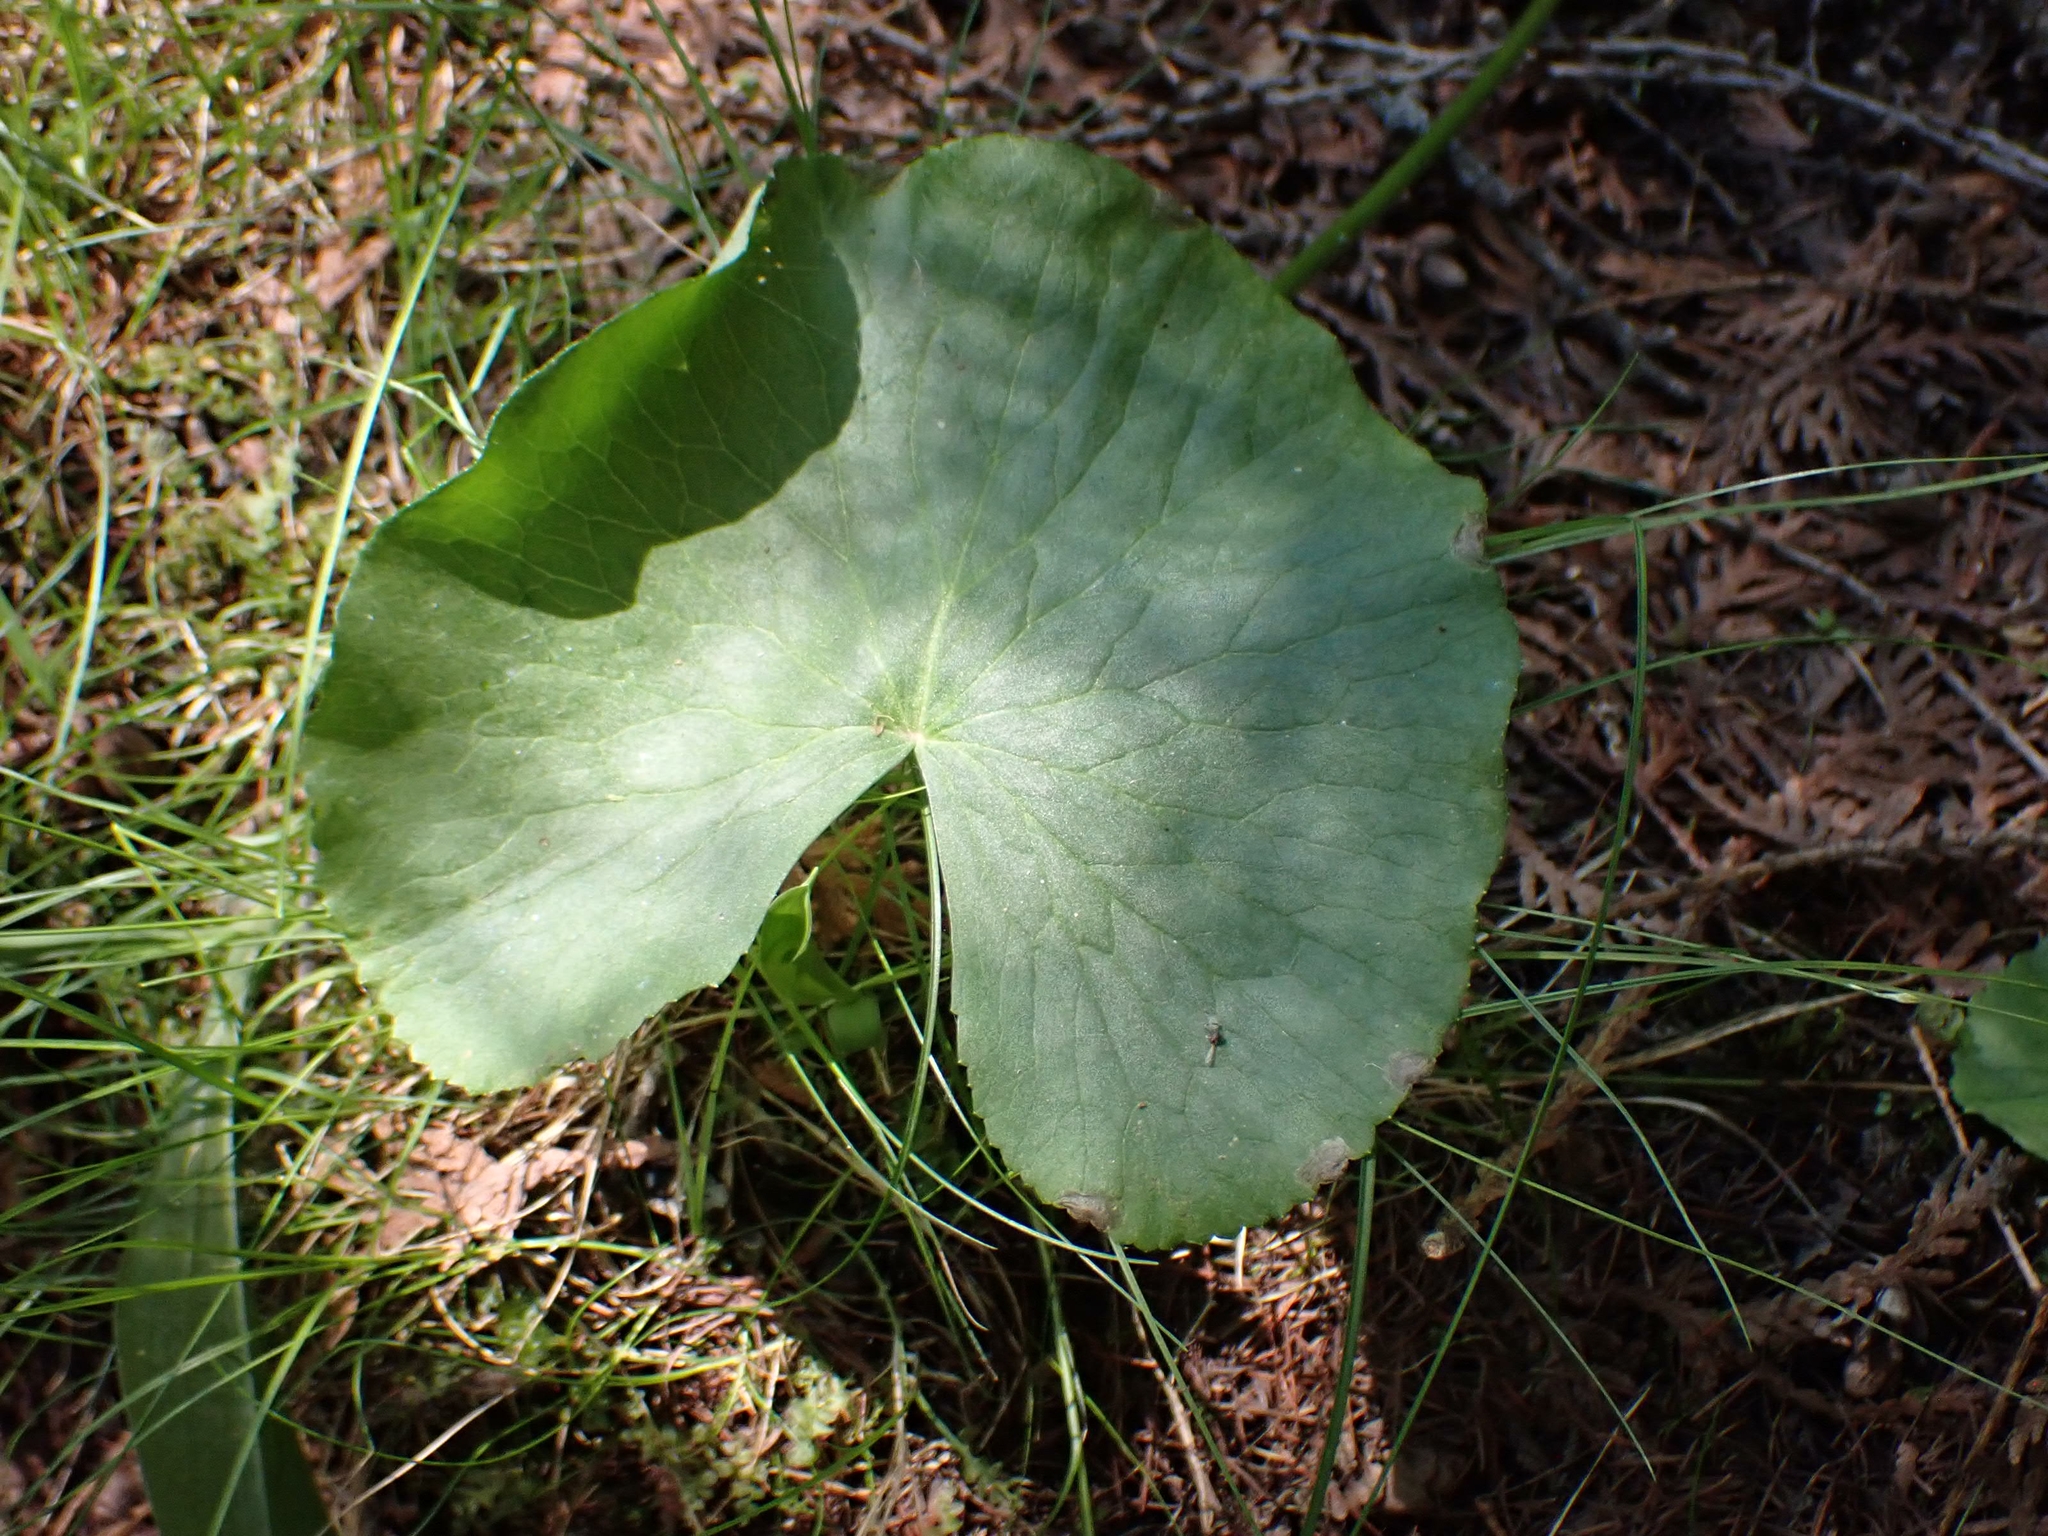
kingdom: Plantae
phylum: Tracheophyta
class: Magnoliopsida
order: Ranunculales
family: Ranunculaceae
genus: Caltha
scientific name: Caltha palustris
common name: Marsh marigold
